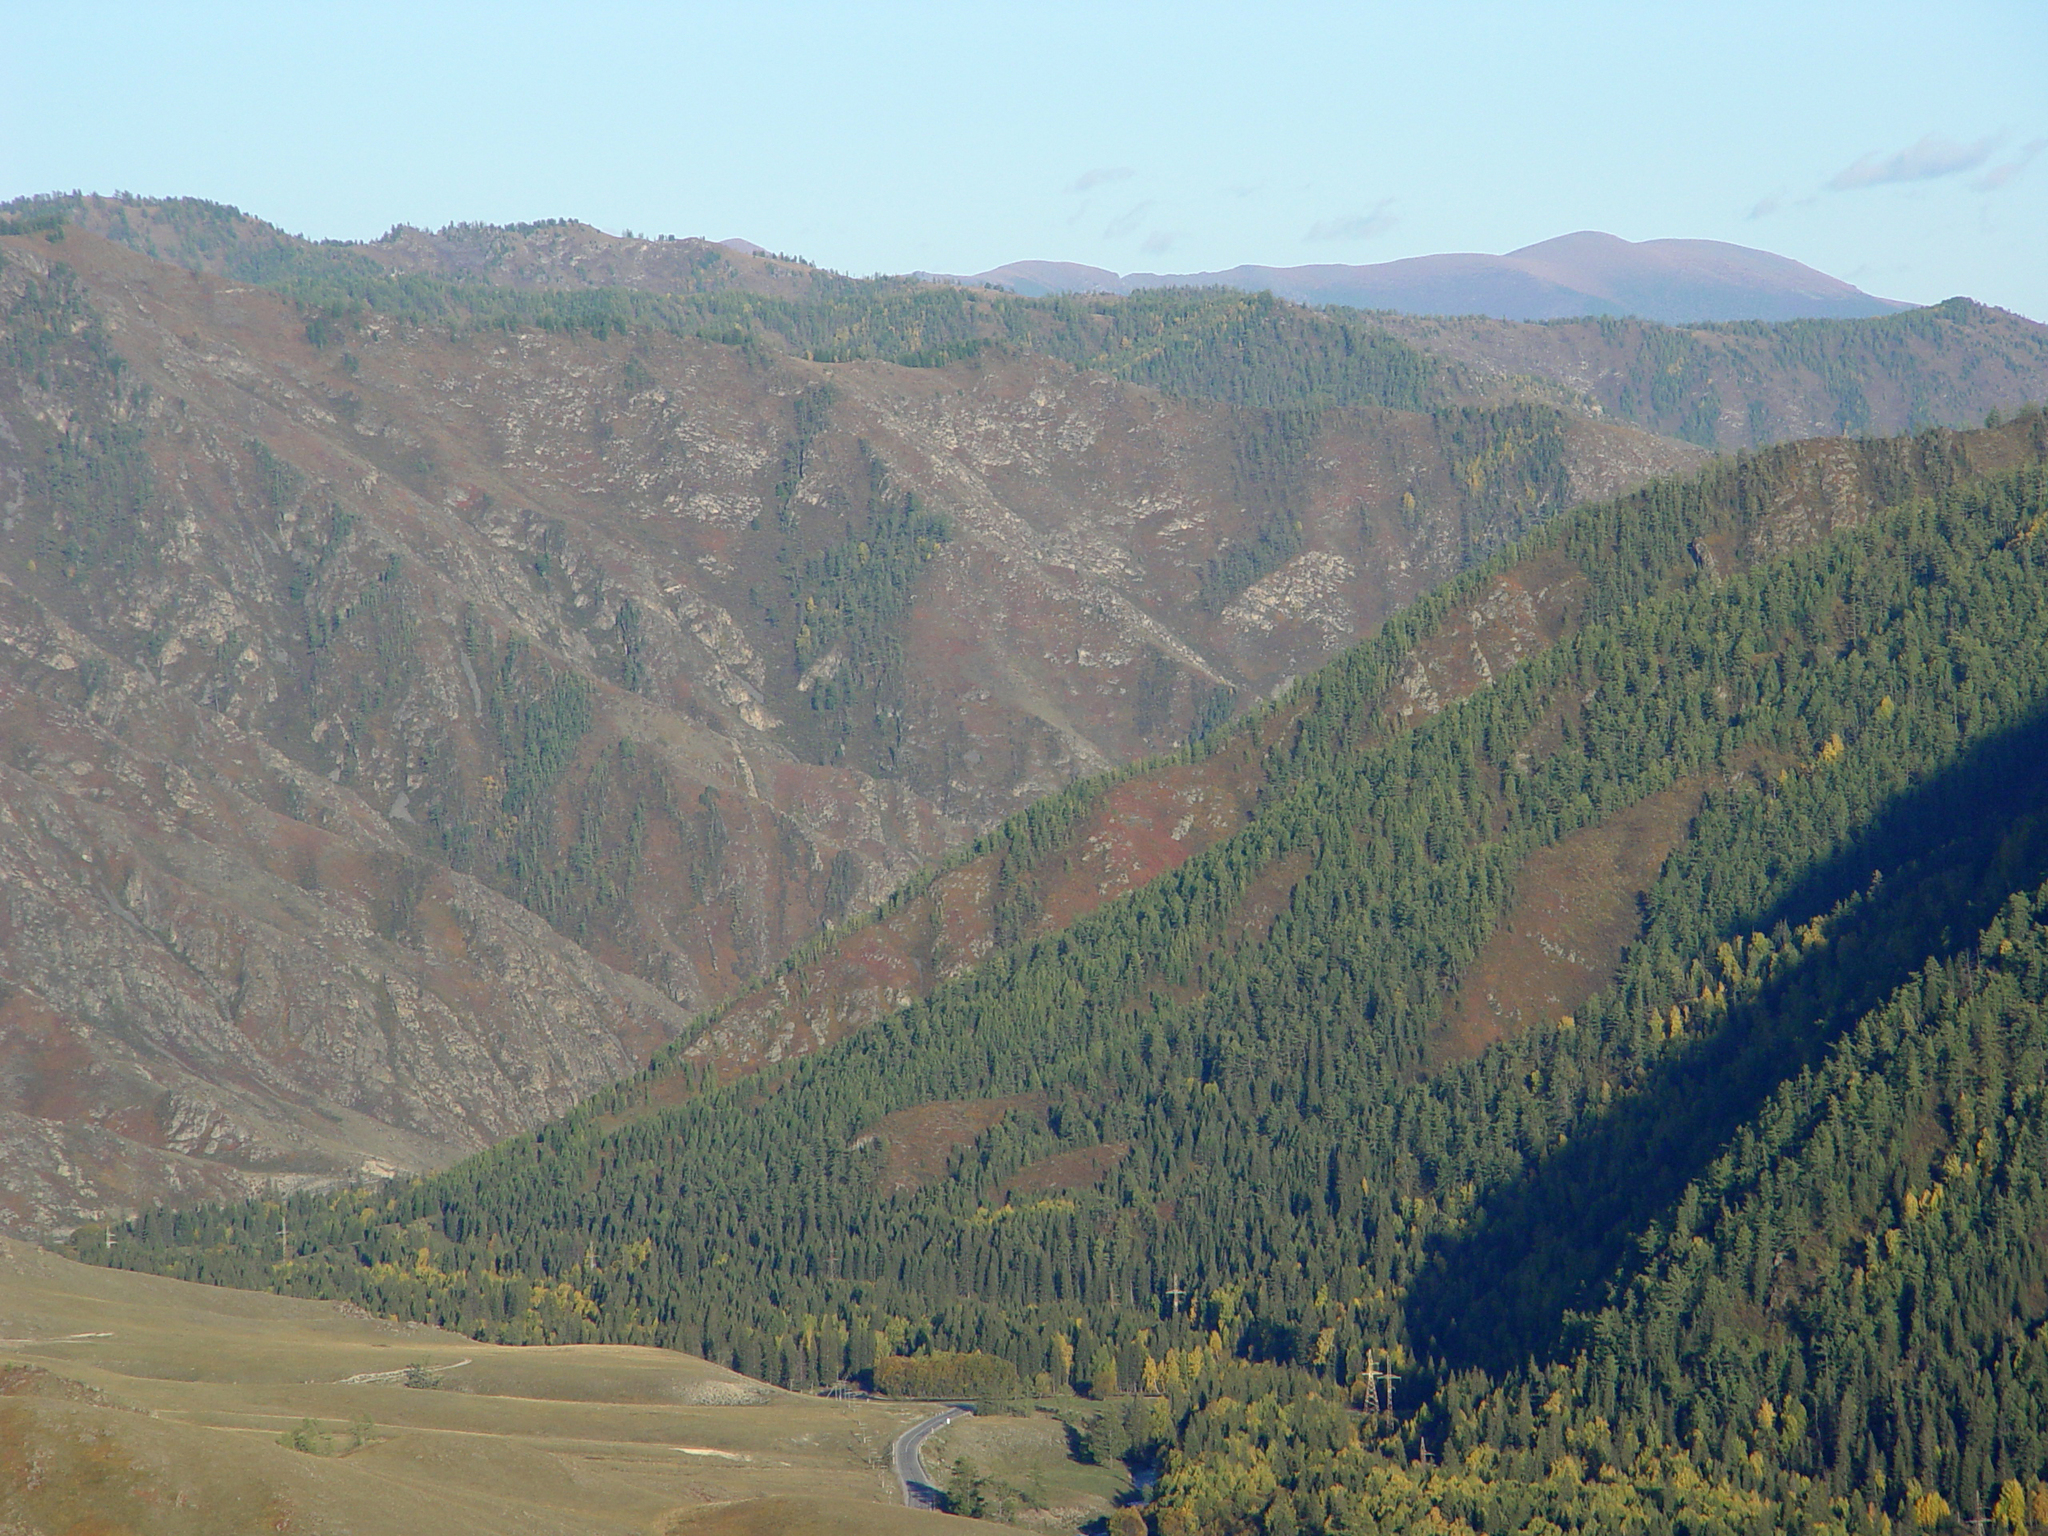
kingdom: Plantae
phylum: Tracheophyta
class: Magnoliopsida
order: Fagales
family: Betulaceae
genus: Betula
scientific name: Betula pendula
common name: Silver birch
